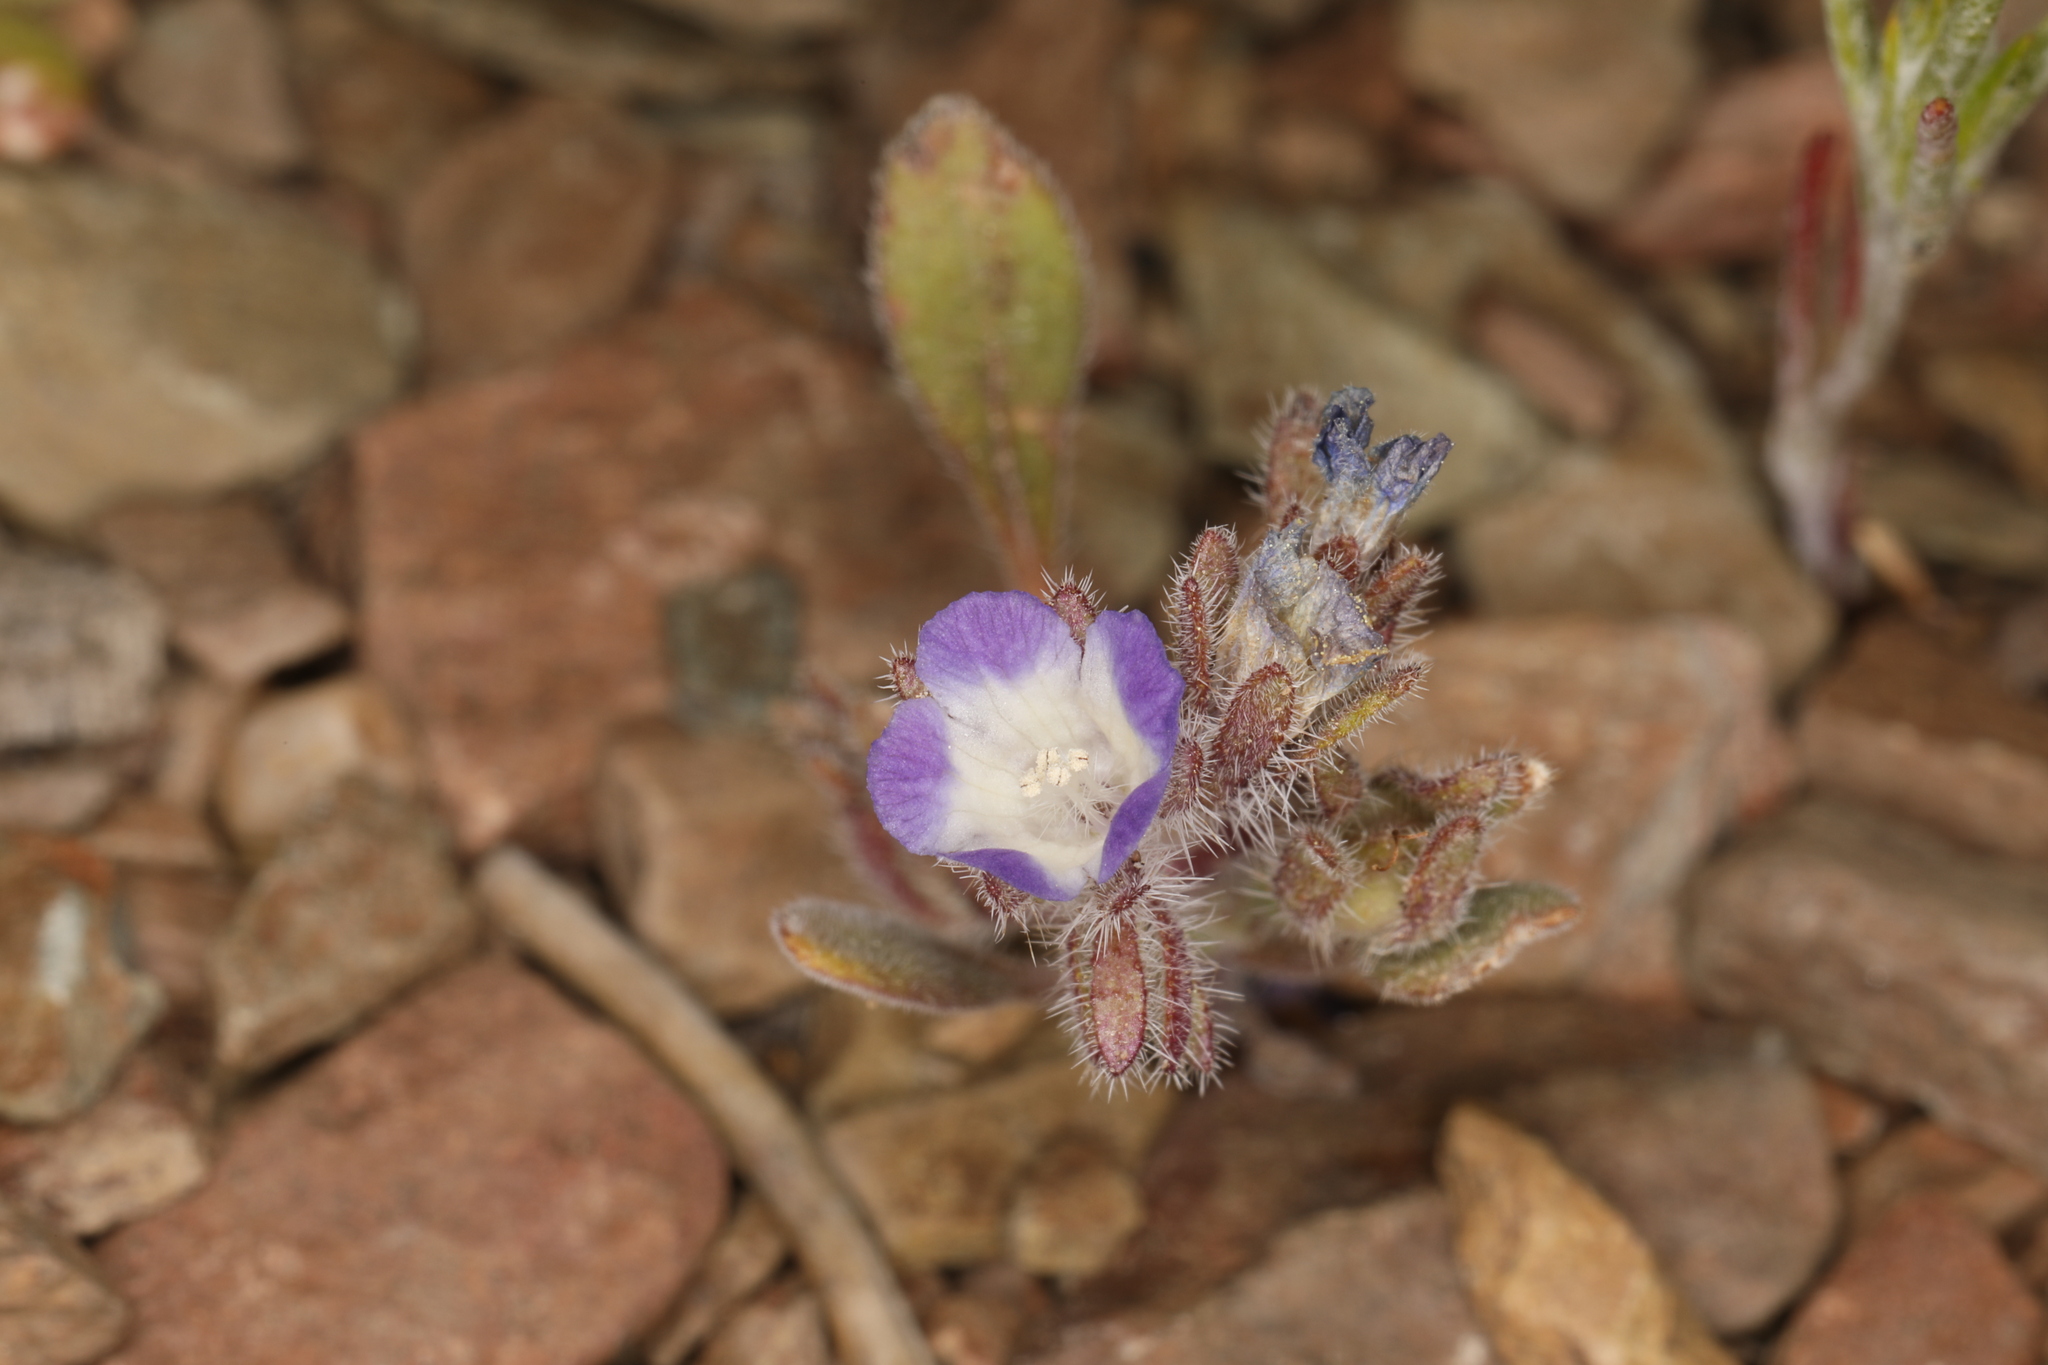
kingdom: Plantae
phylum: Tracheophyta
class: Magnoliopsida
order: Boraginales
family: Hydrophyllaceae
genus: Phacelia
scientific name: Phacelia curvipes
